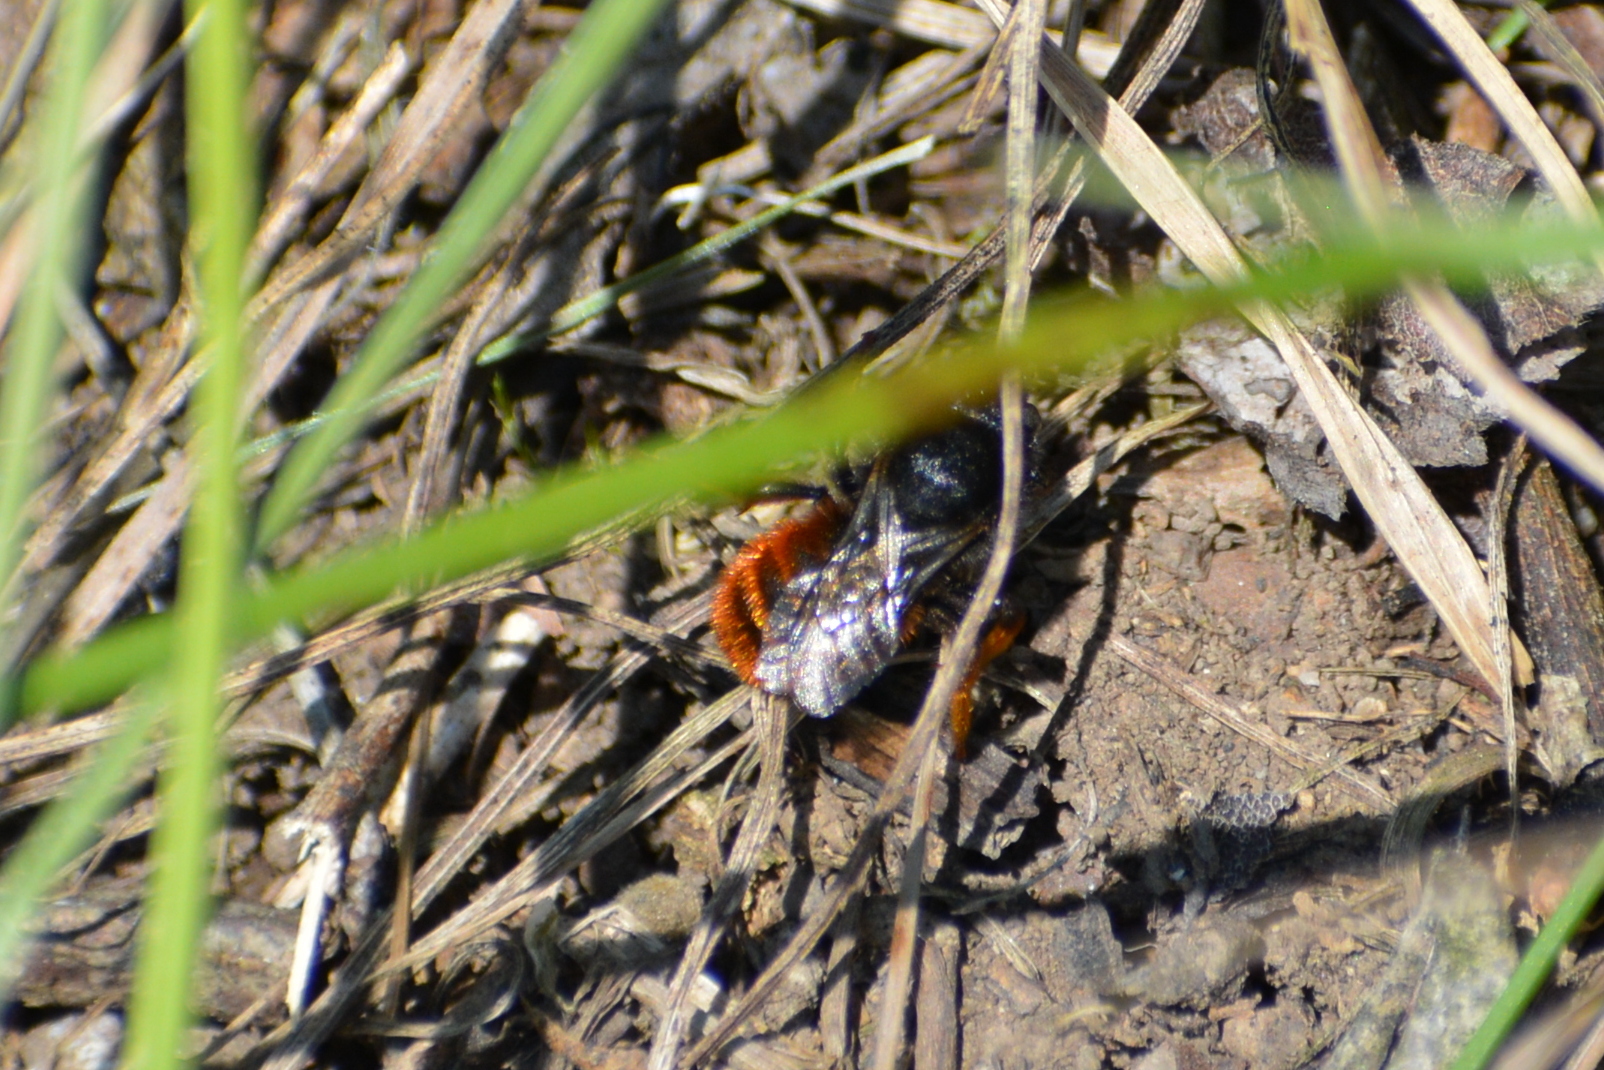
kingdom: Animalia
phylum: Arthropoda
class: Insecta
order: Hymenoptera
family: Megachilidae
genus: Osmia
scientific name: Osmia bicolor
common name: Red-tailed mason bee
